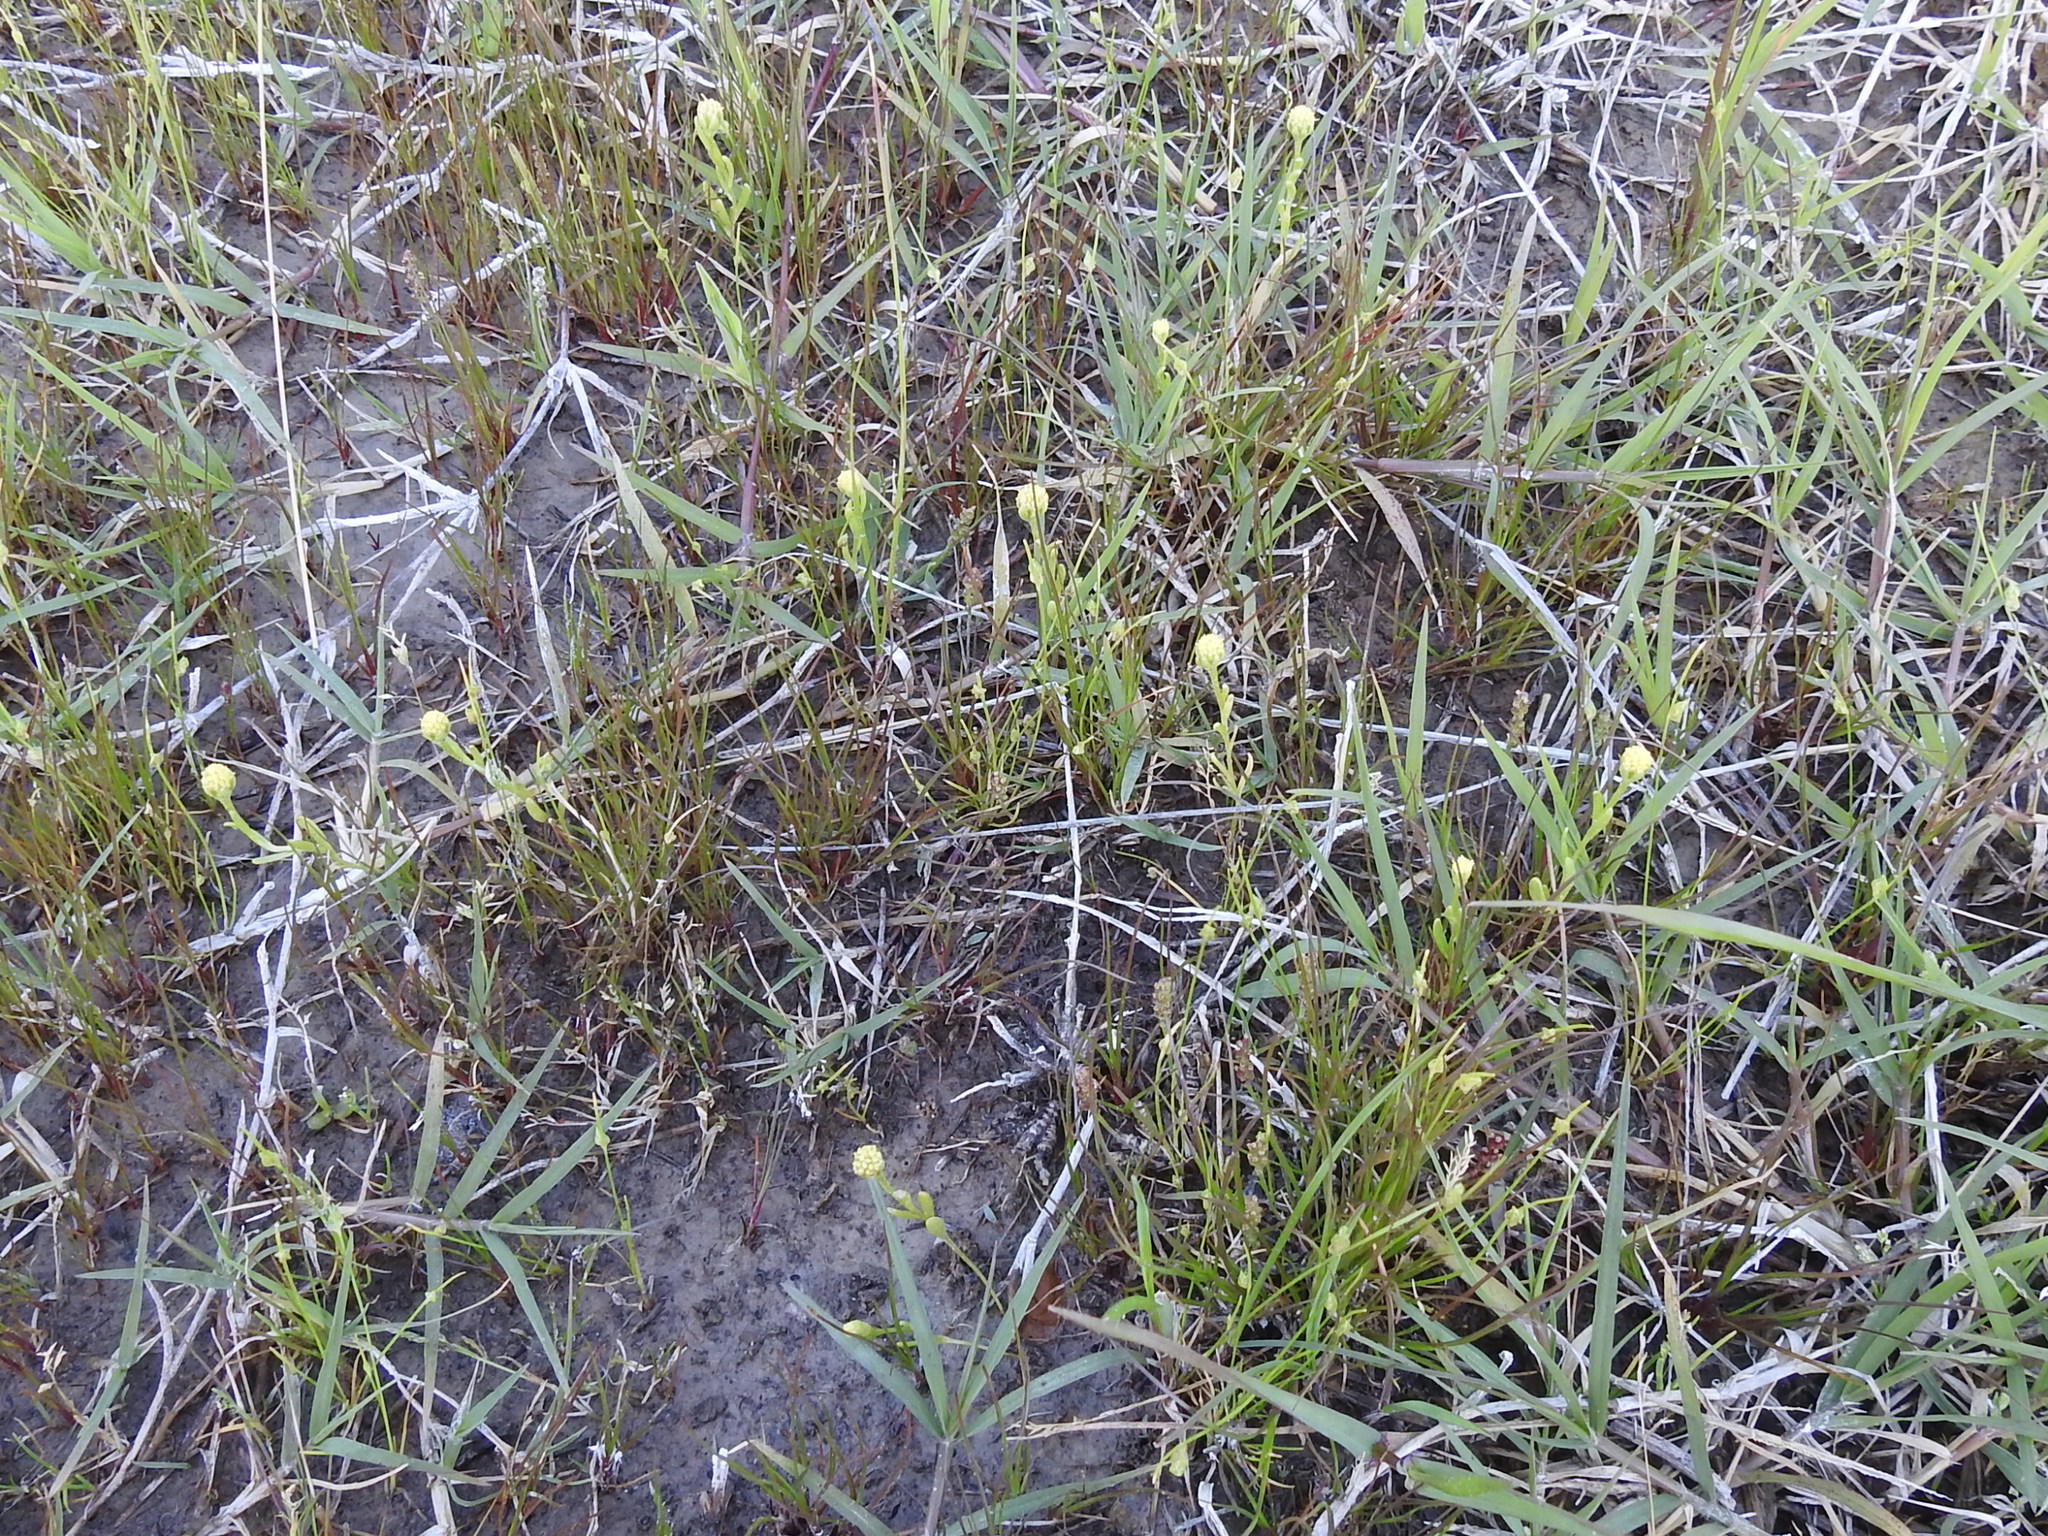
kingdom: Plantae
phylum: Tracheophyta
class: Magnoliopsida
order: Asterales
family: Asteraceae
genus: Hymenoxys
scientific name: Hymenoxys perpygmaea
